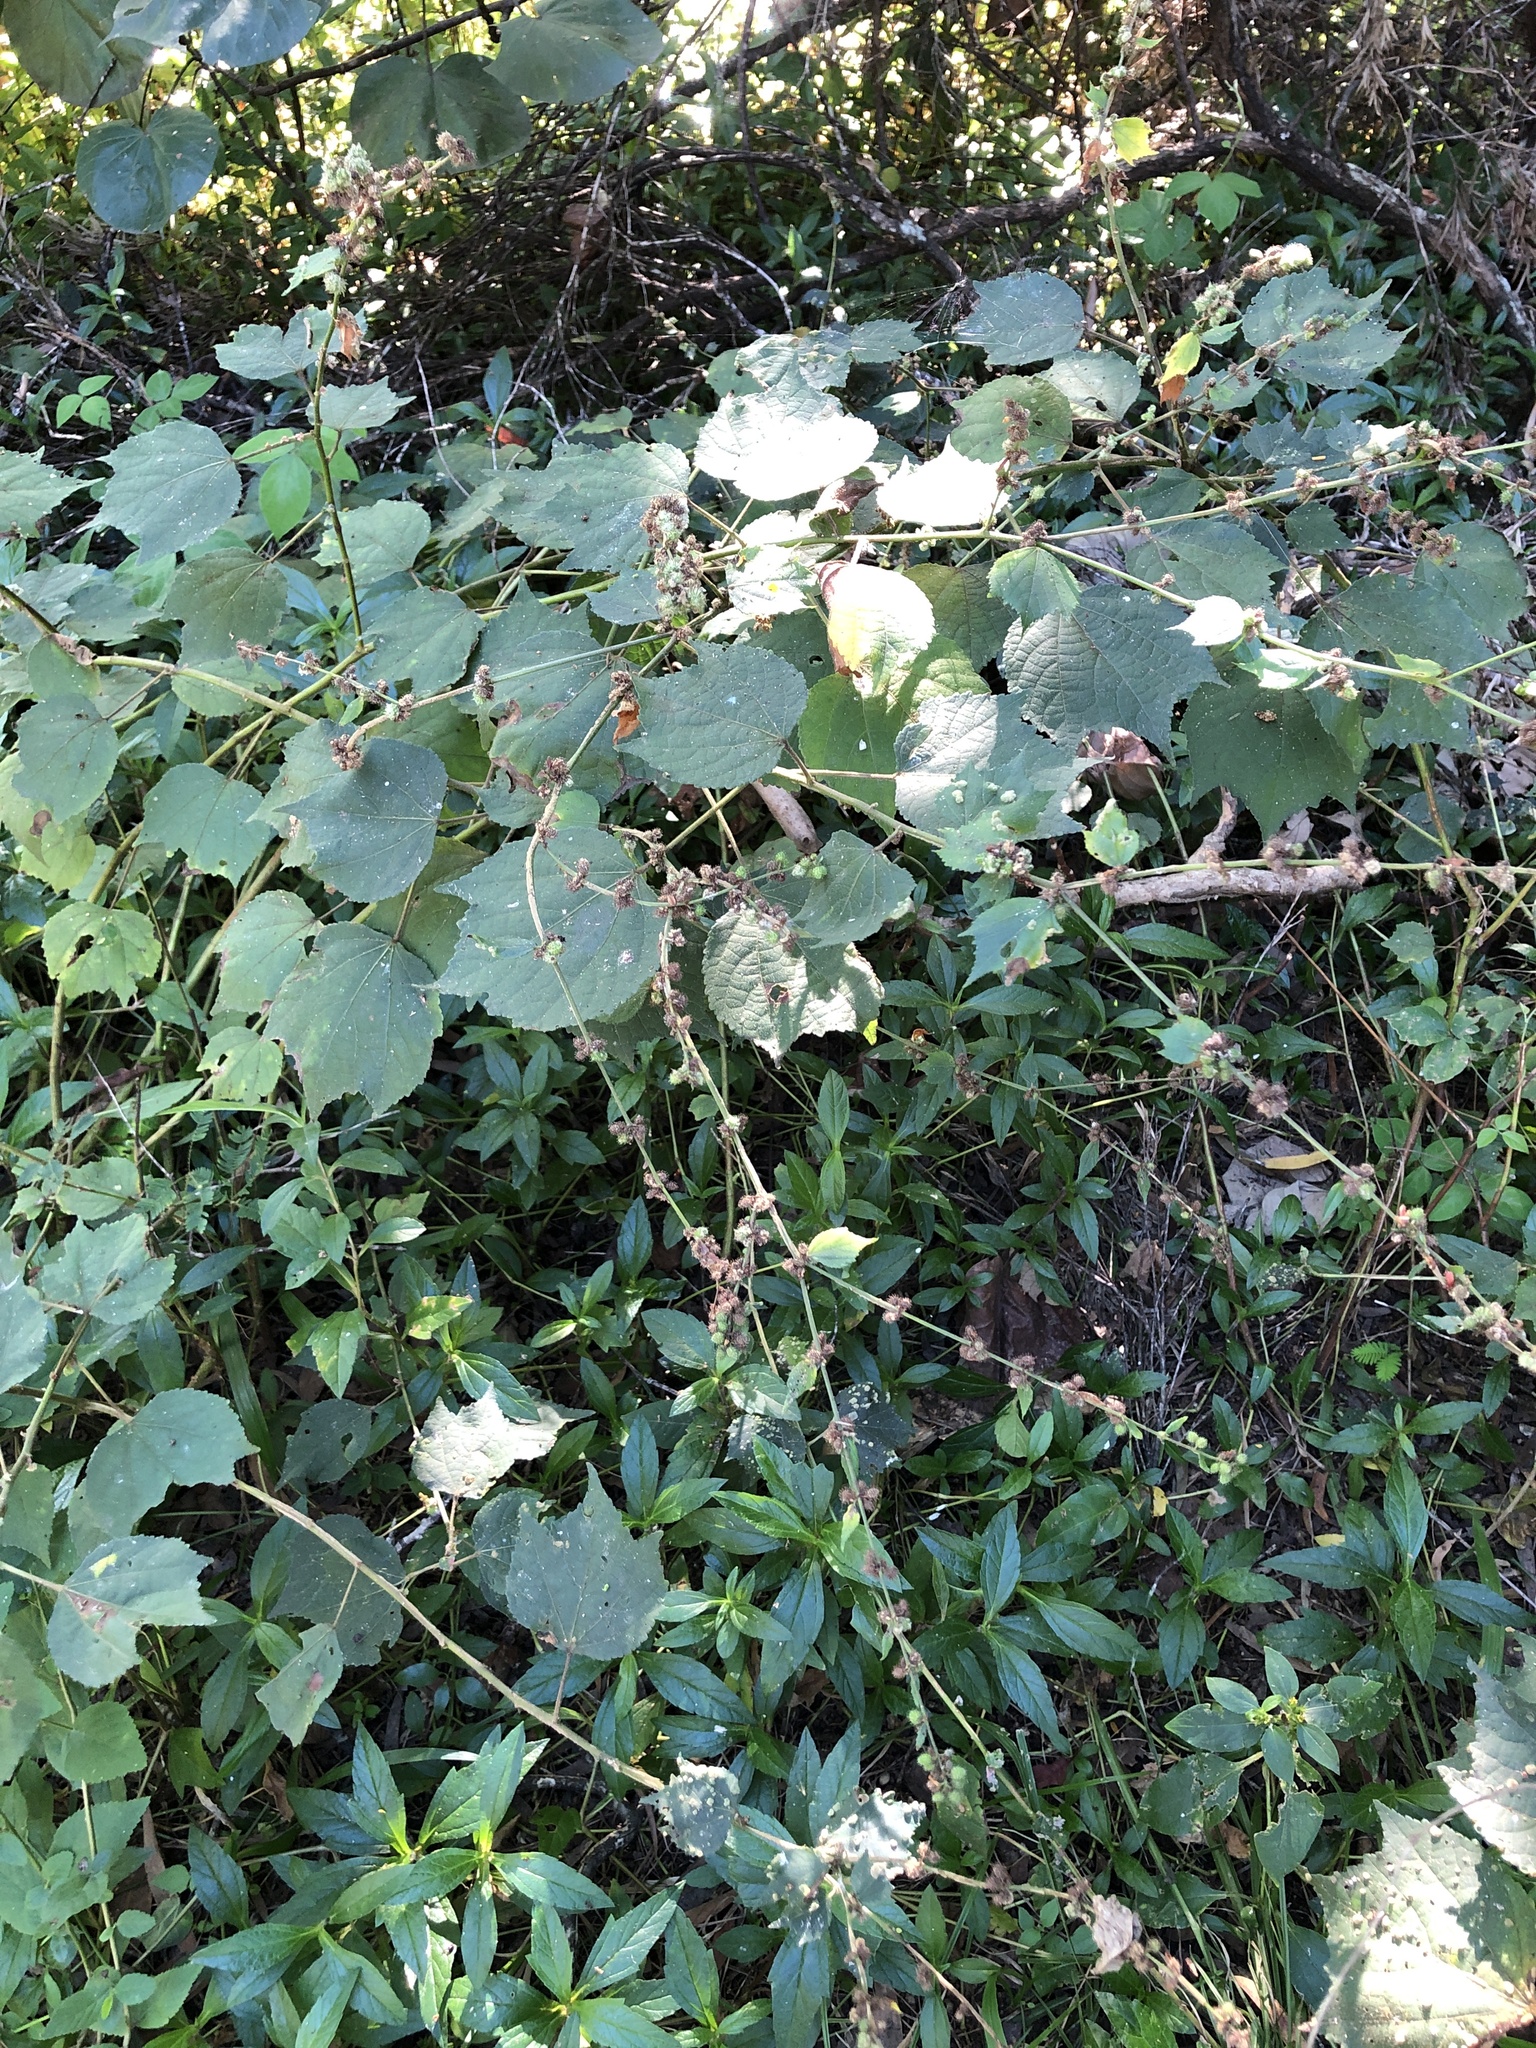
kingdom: Plantae
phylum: Tracheophyta
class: Magnoliopsida
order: Malvales
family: Malvaceae
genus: Triumfetta
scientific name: Triumfetta rhomboidea
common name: Diamond burbark
